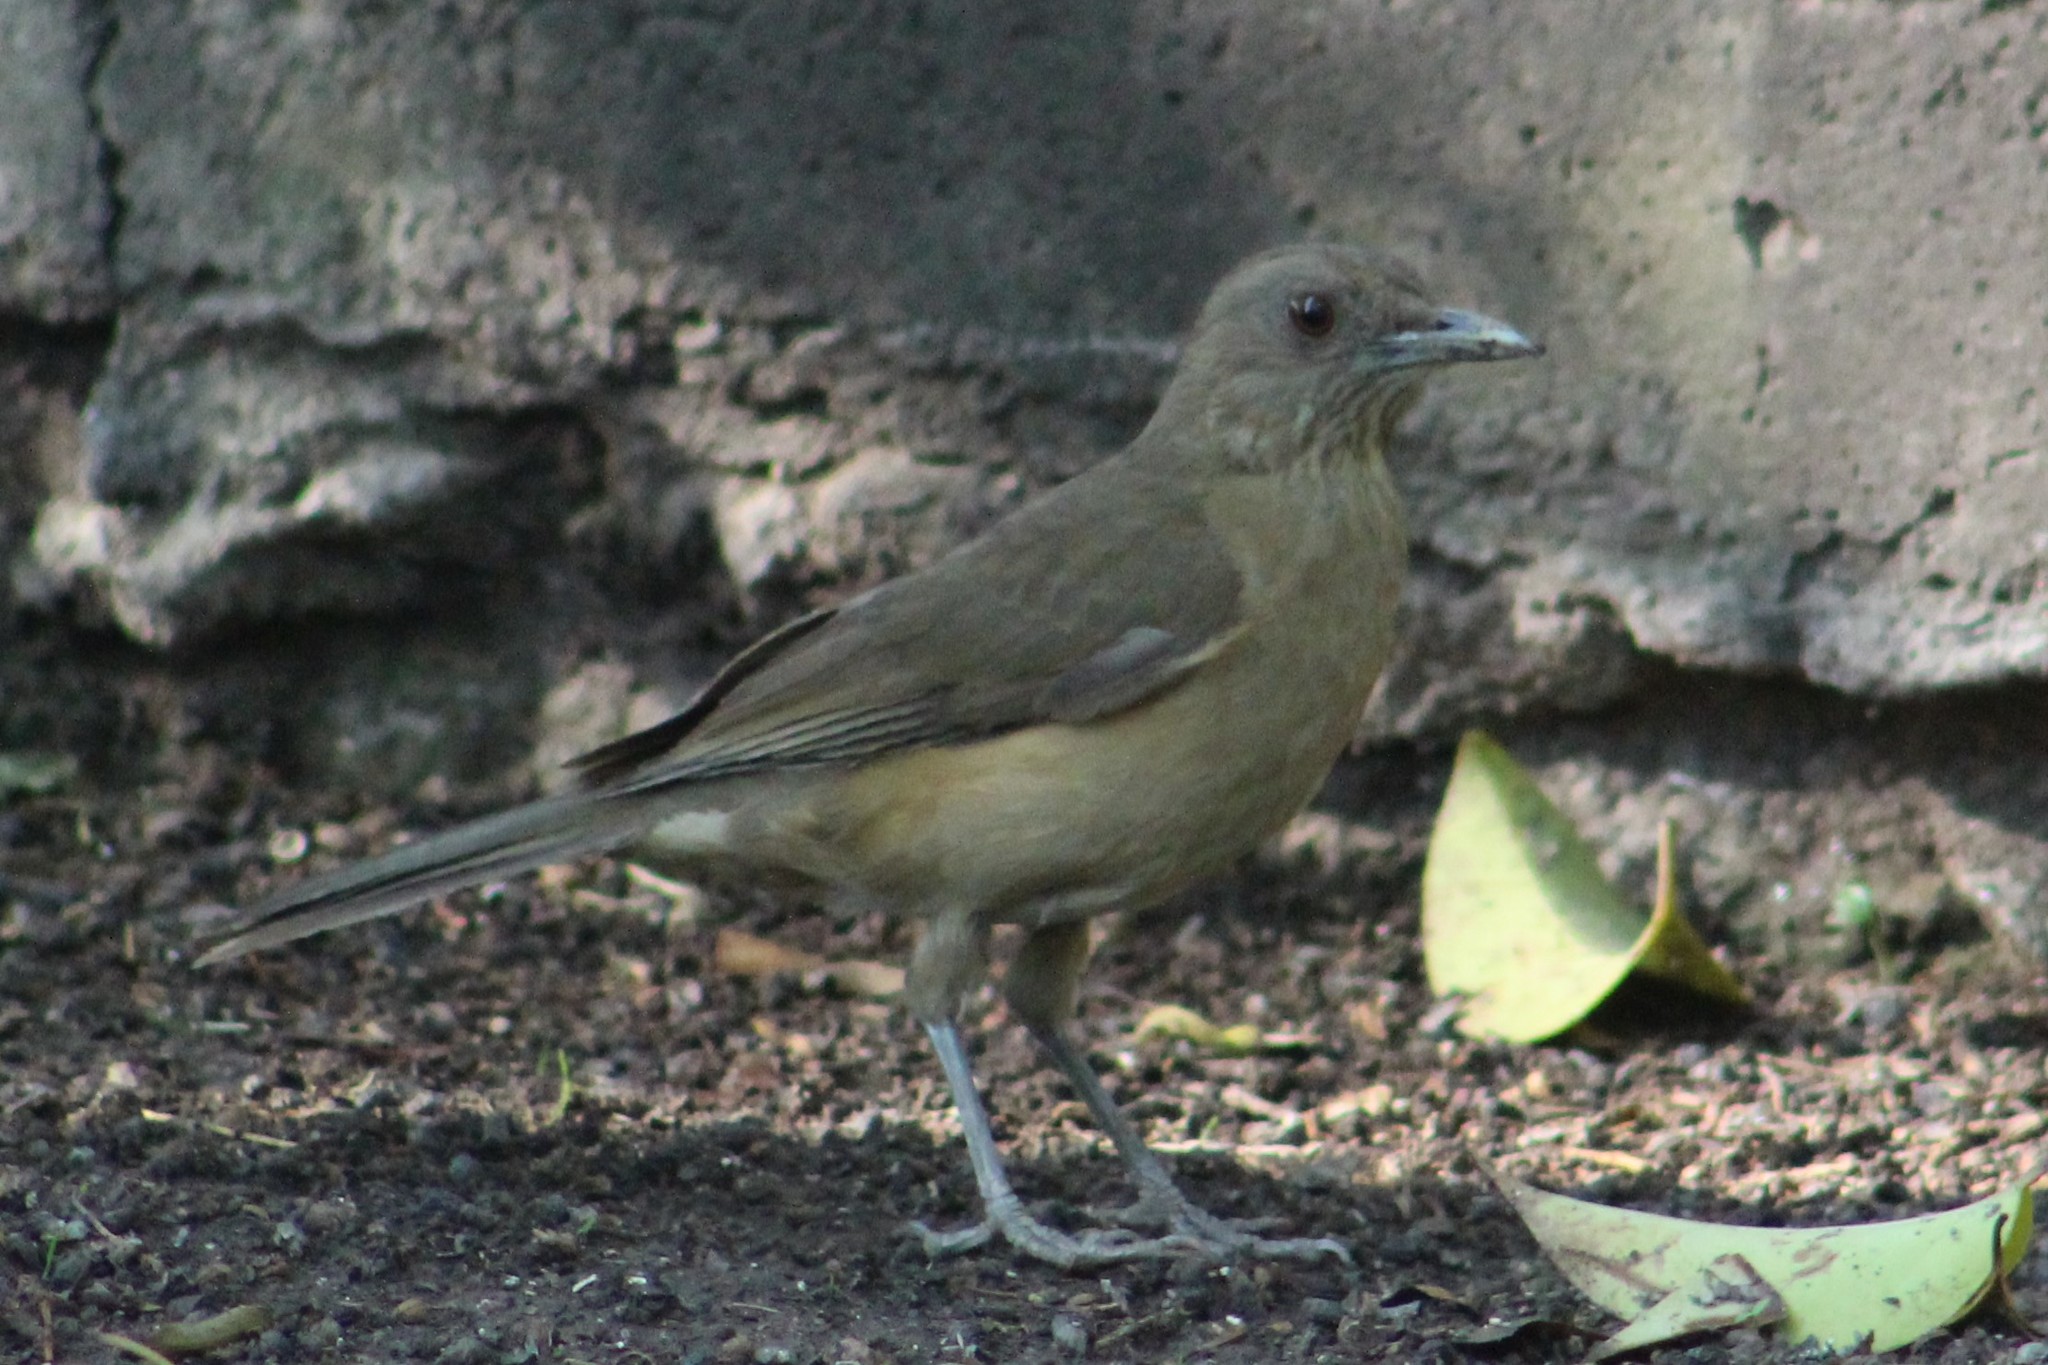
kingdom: Animalia
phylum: Chordata
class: Aves
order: Passeriformes
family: Turdidae
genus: Turdus
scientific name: Turdus grayi
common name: Clay-colored thrush
